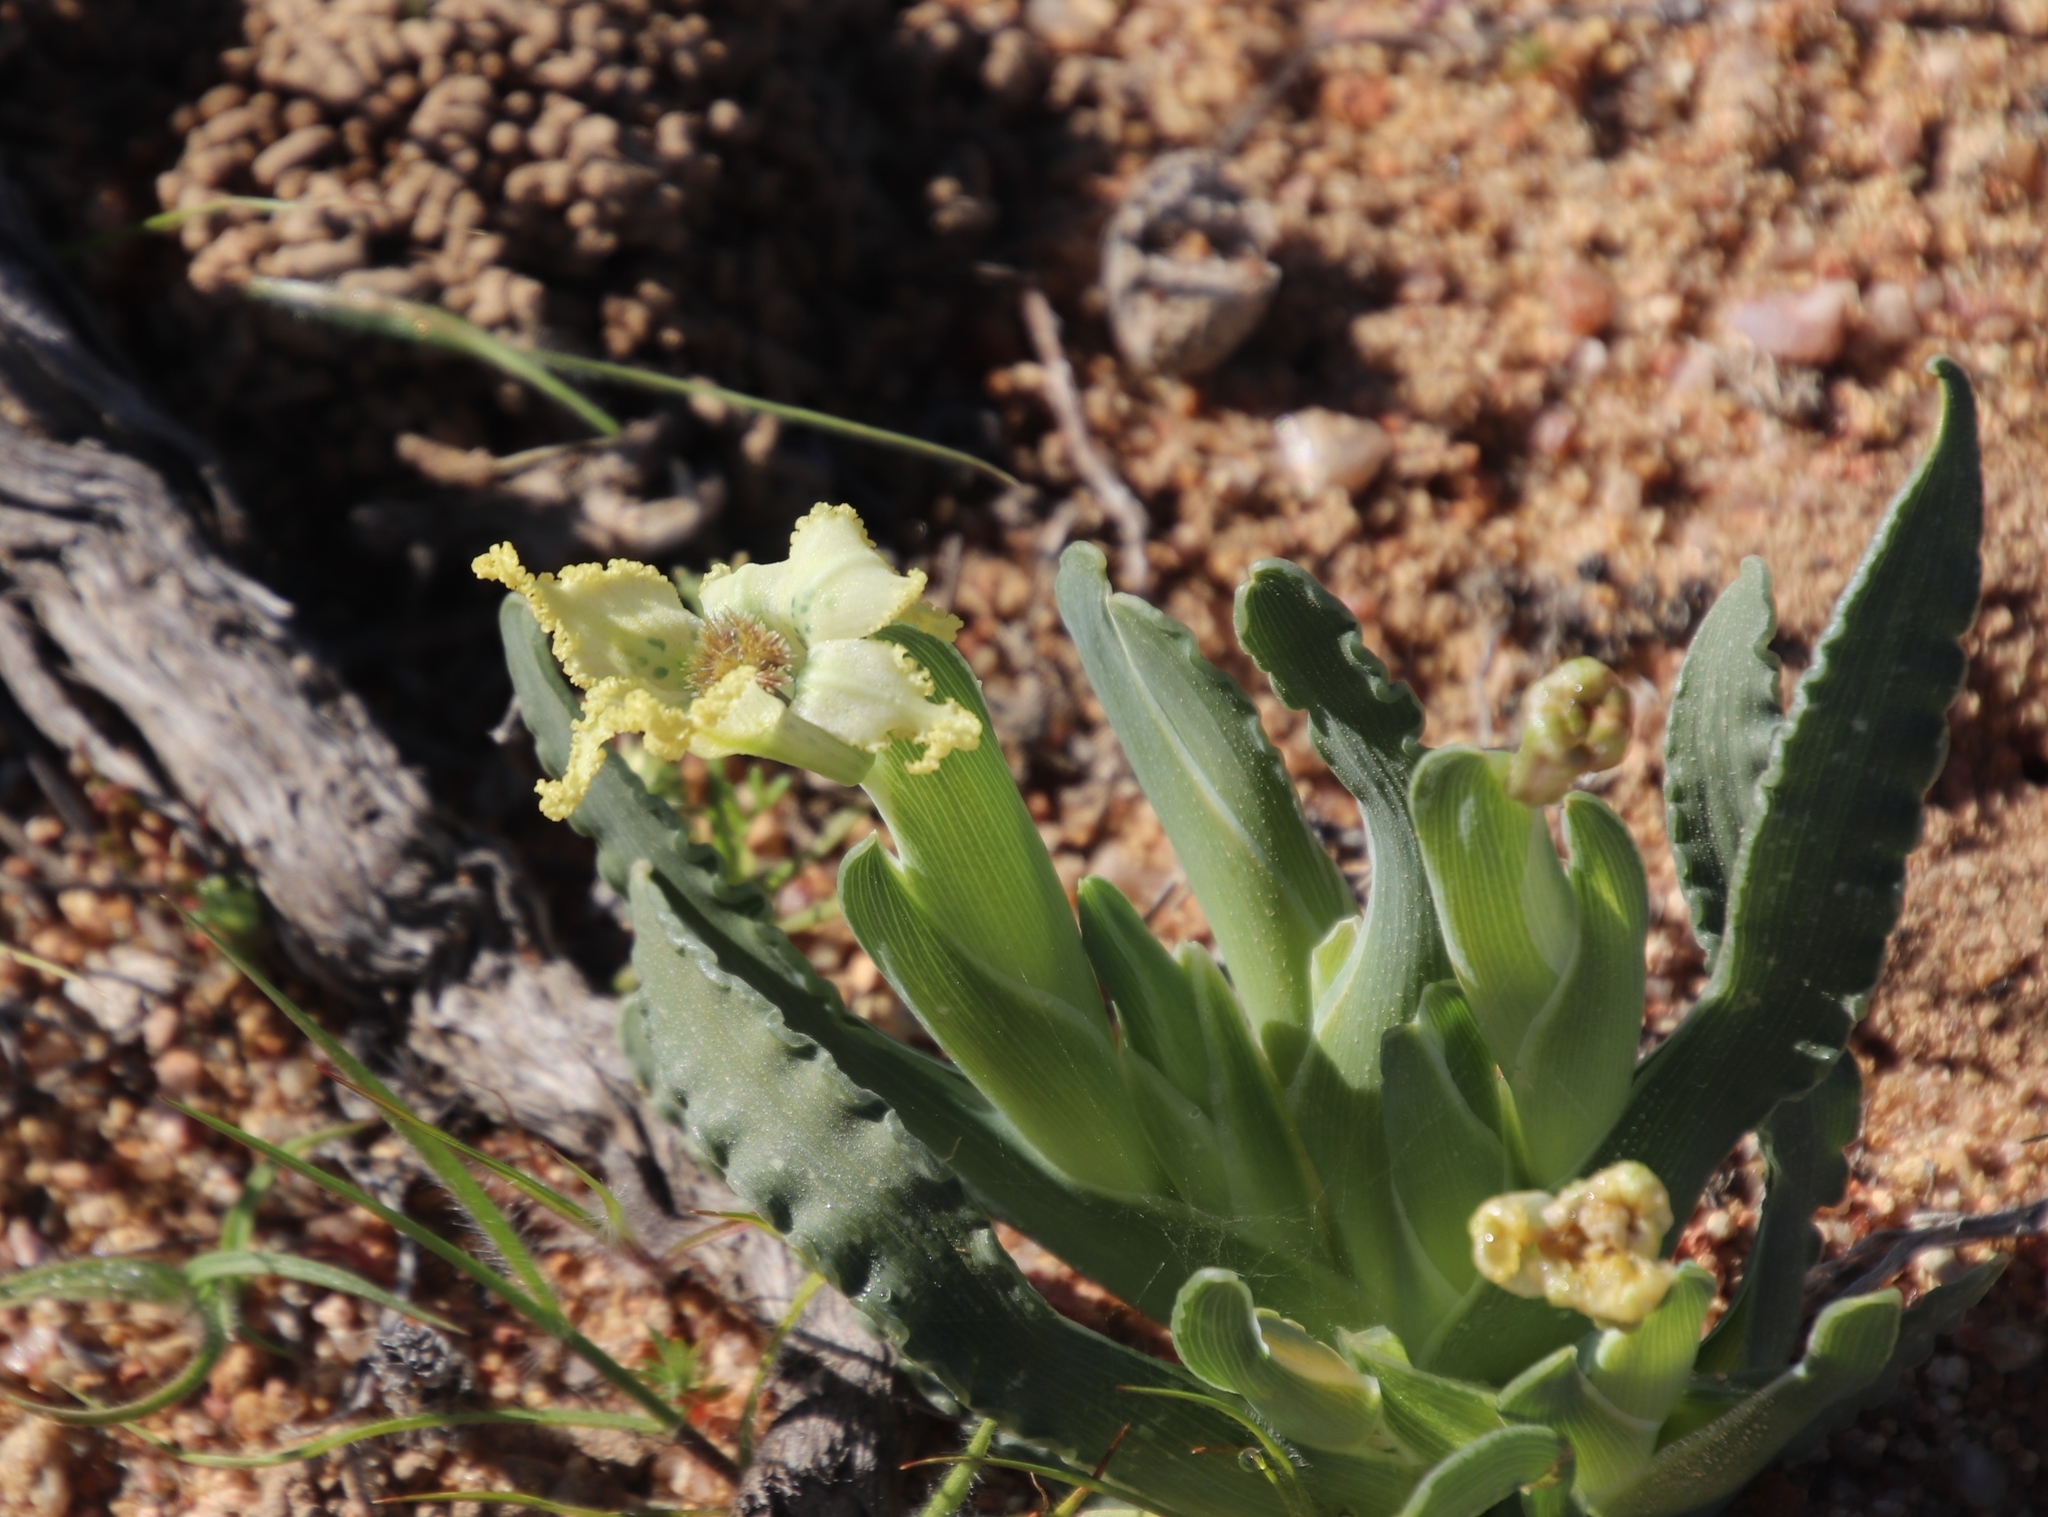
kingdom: Plantae
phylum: Tracheophyta
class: Liliopsida
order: Asparagales
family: Iridaceae
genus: Ferraria
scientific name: Ferraria macrochlamys
